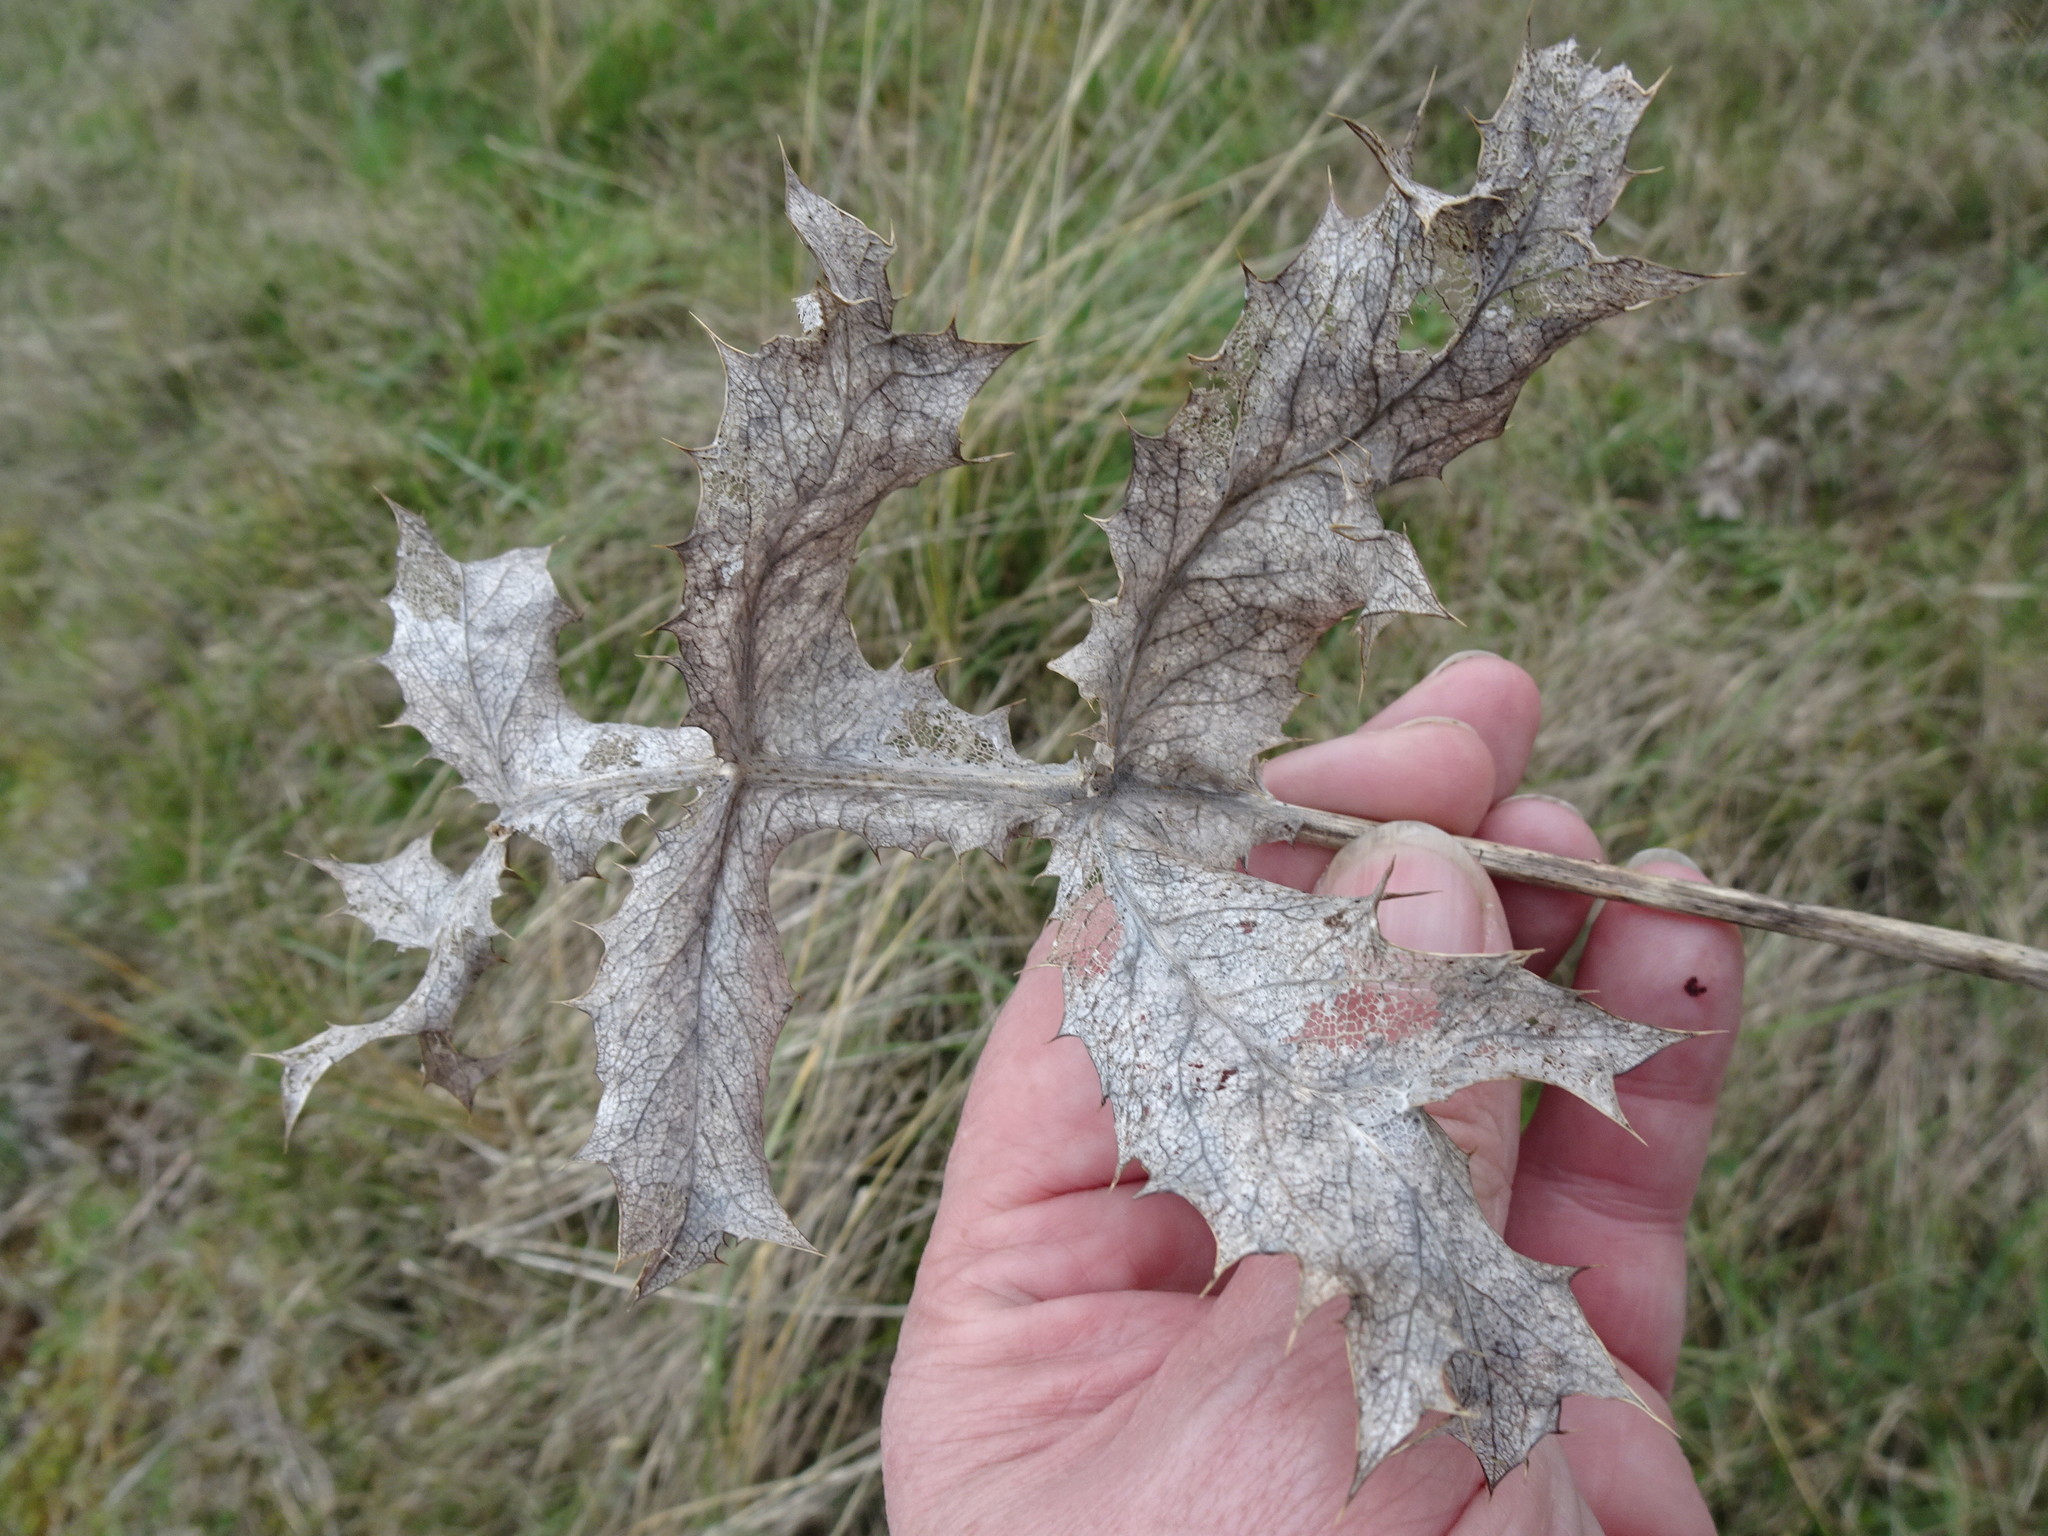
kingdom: Plantae
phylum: Tracheophyta
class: Magnoliopsida
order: Apiales
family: Apiaceae
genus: Eryngium
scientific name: Eryngium campestre
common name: Field eryngo
